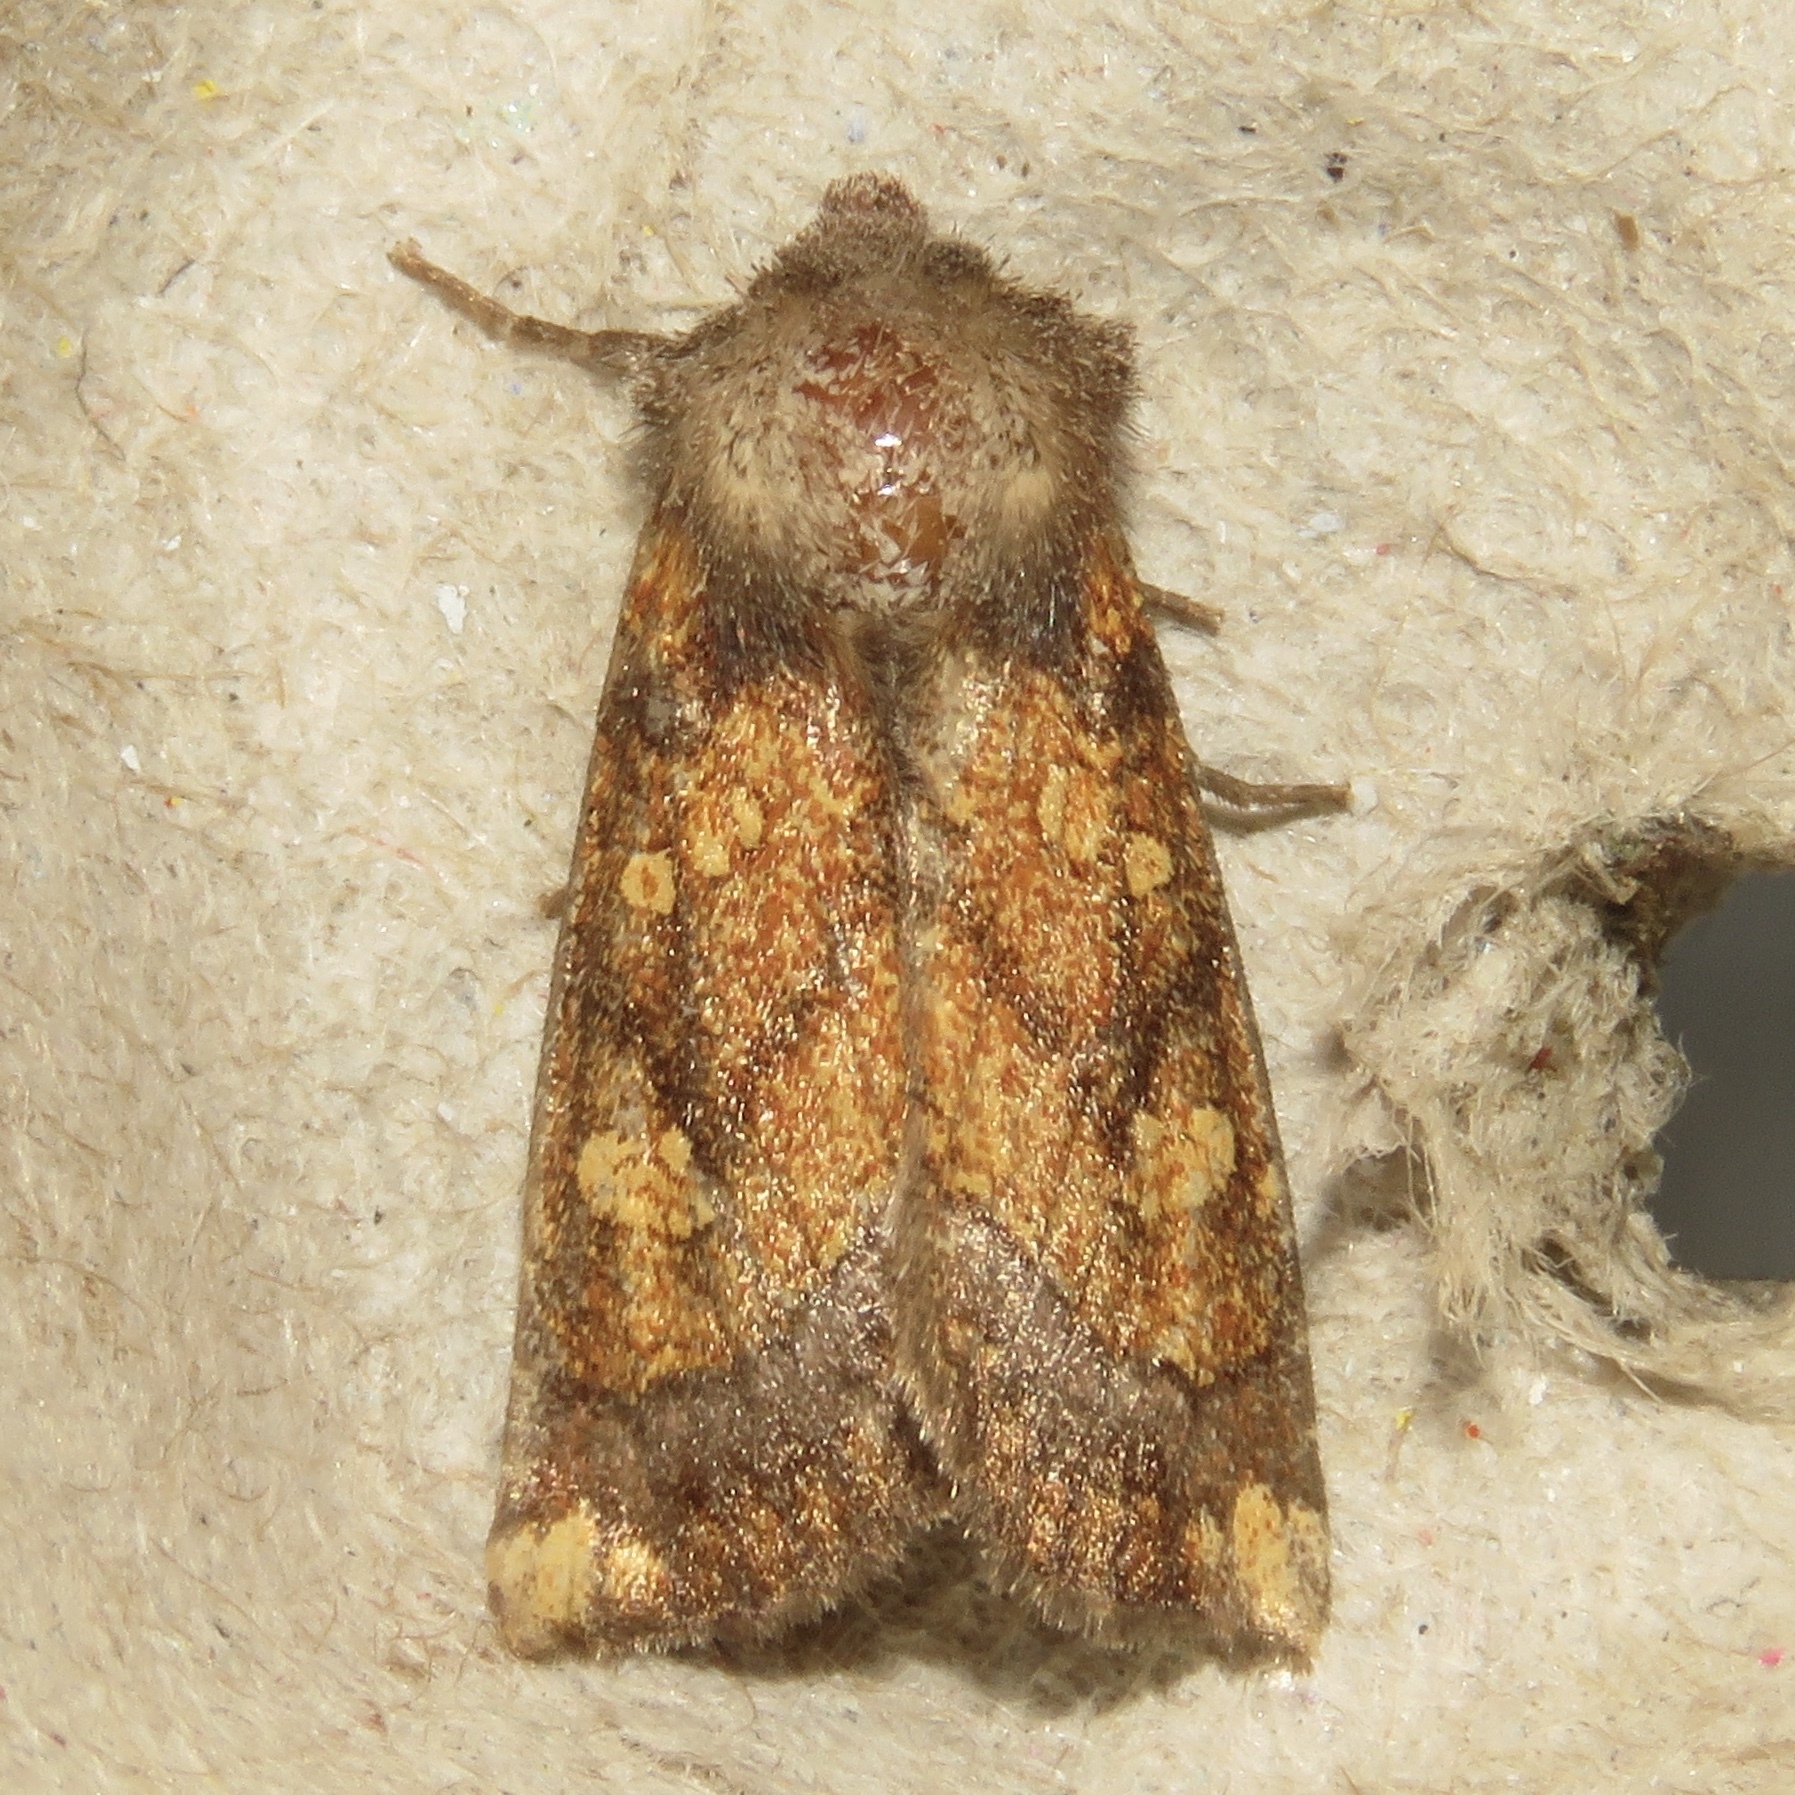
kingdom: Animalia
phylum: Arthropoda
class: Insecta
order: Lepidoptera
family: Noctuidae
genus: Papaipema
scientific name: Papaipema impecuniosa
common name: Aster borer moth
